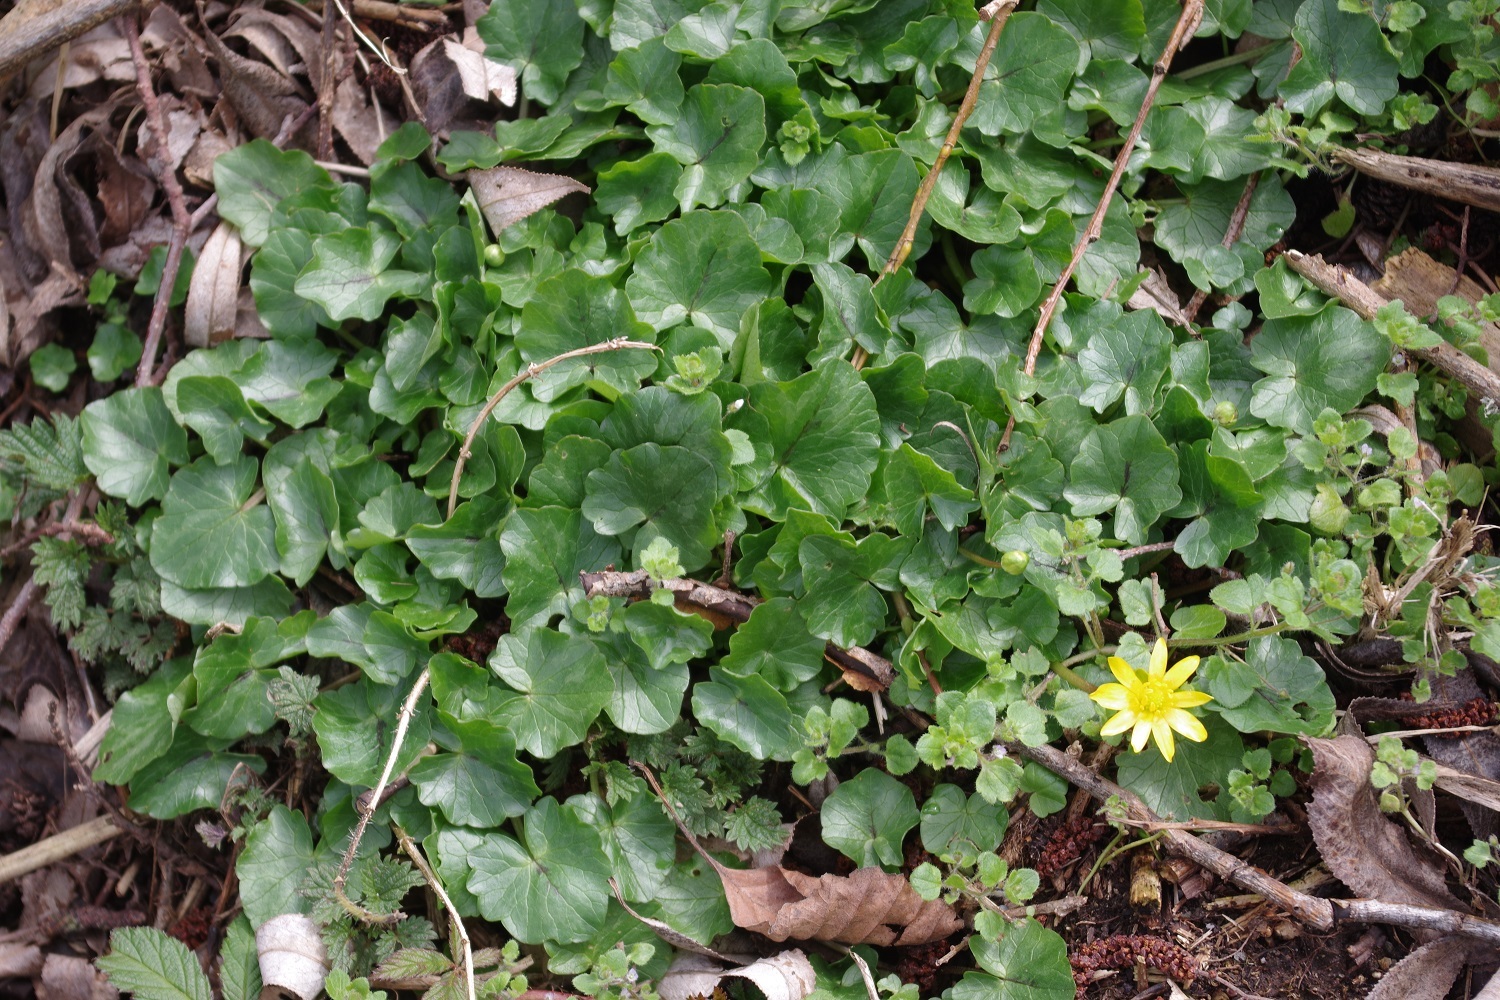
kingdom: Plantae
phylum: Tracheophyta
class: Magnoliopsida
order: Ranunculales
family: Ranunculaceae
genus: Ficaria
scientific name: Ficaria verna
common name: Lesser celandine
